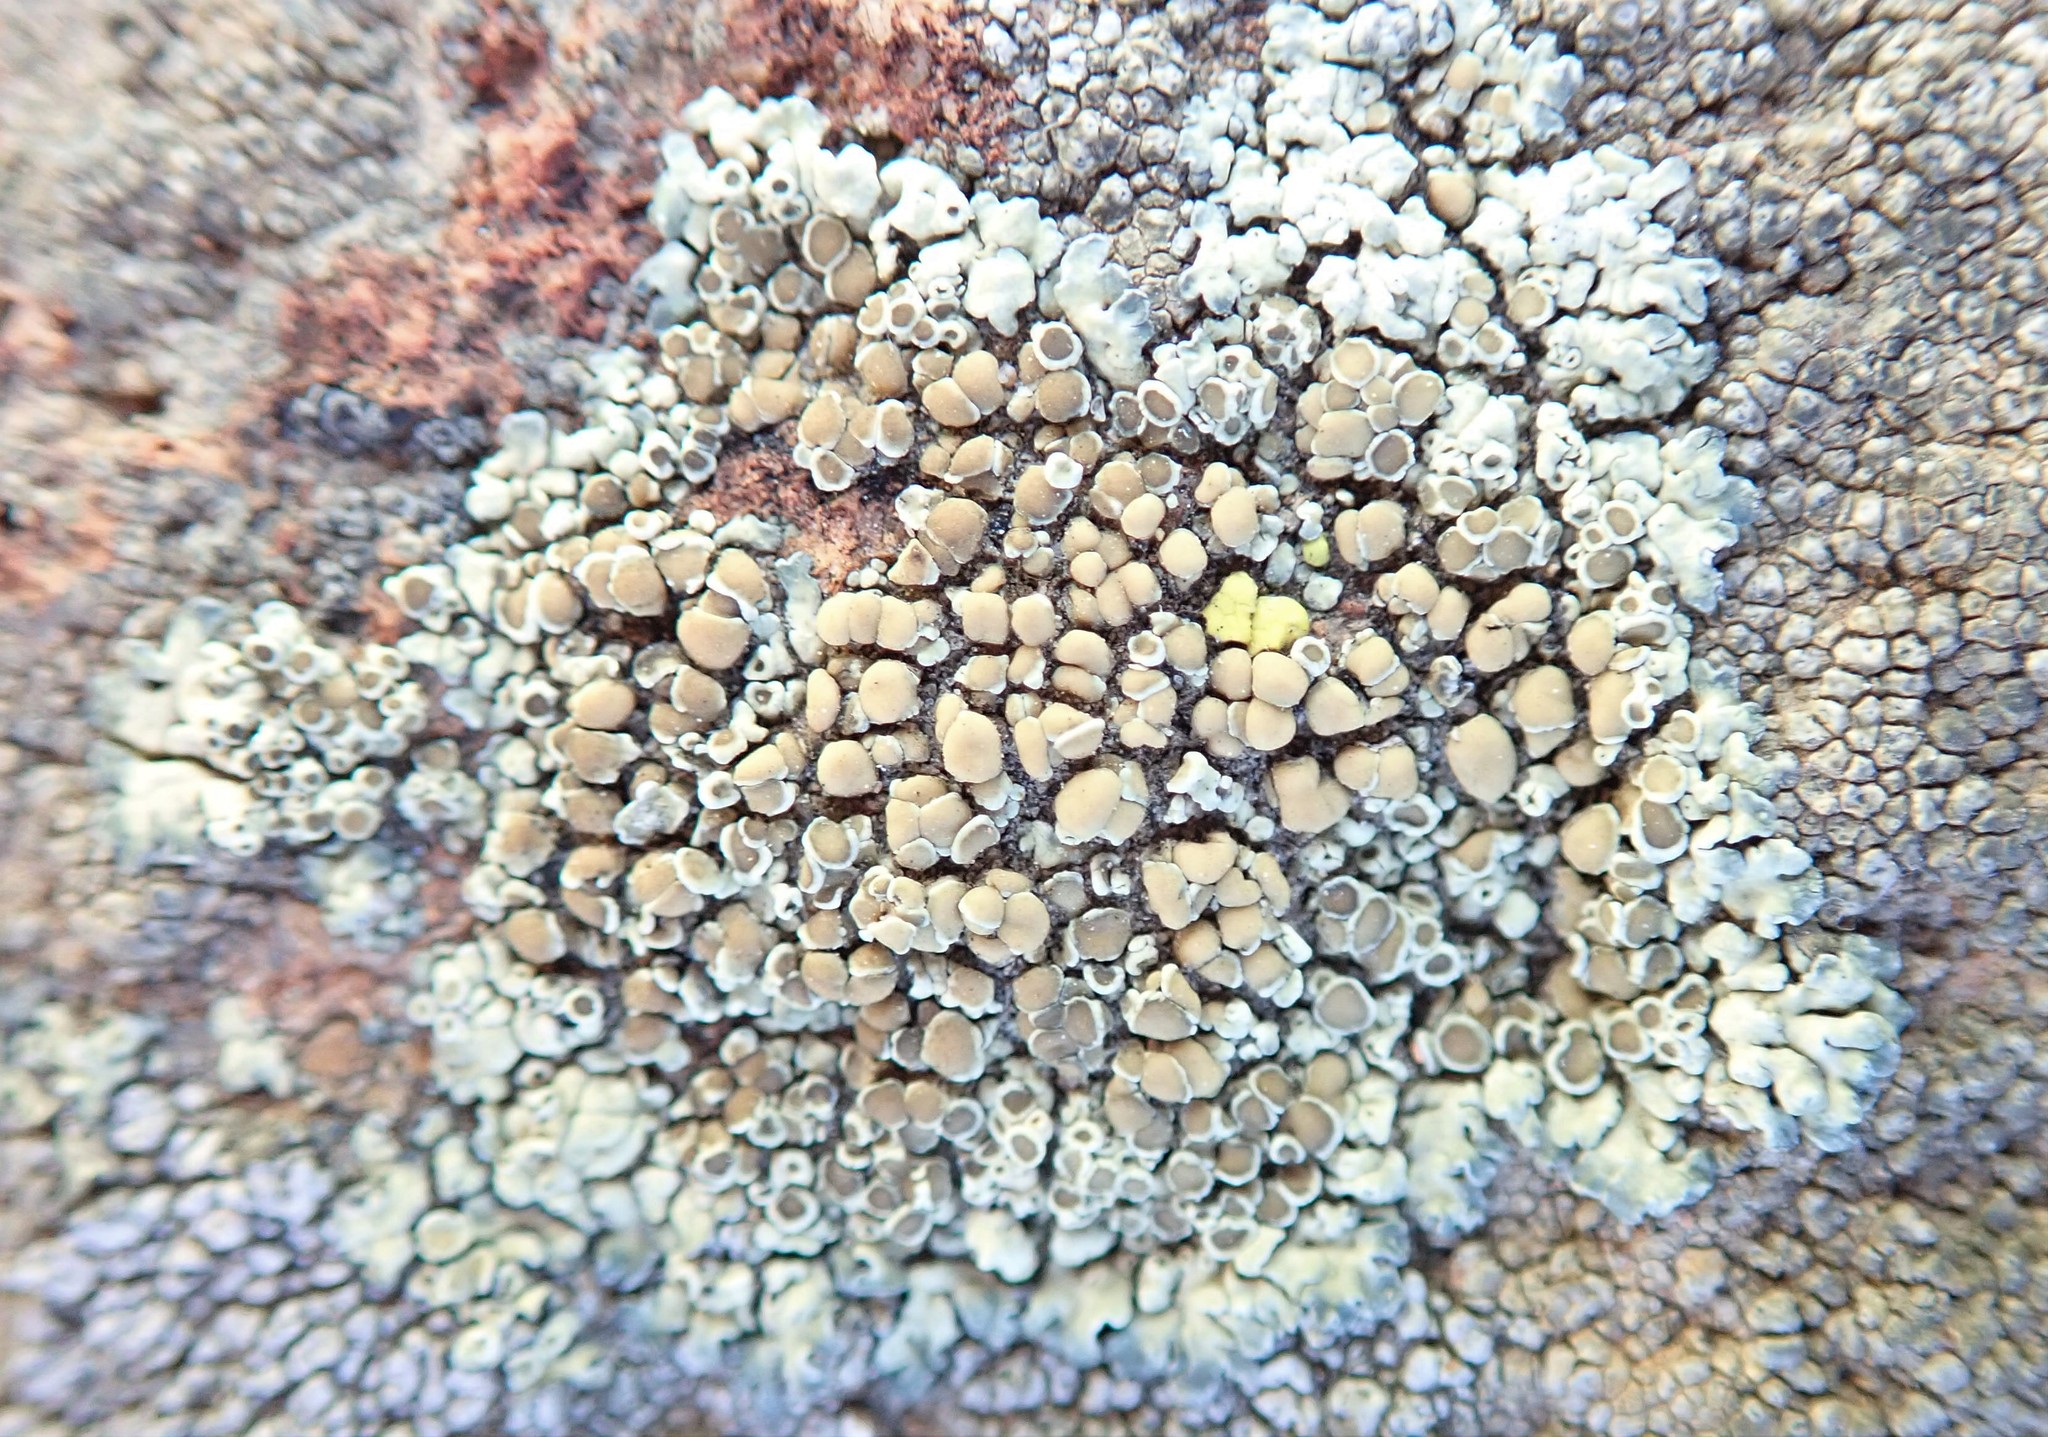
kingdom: Fungi
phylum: Ascomycota
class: Lecanoromycetes
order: Lecanorales
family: Lecanoraceae
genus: Protoparmeliopsis
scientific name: Protoparmeliopsis muralis
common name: Stonewall rim lichen
